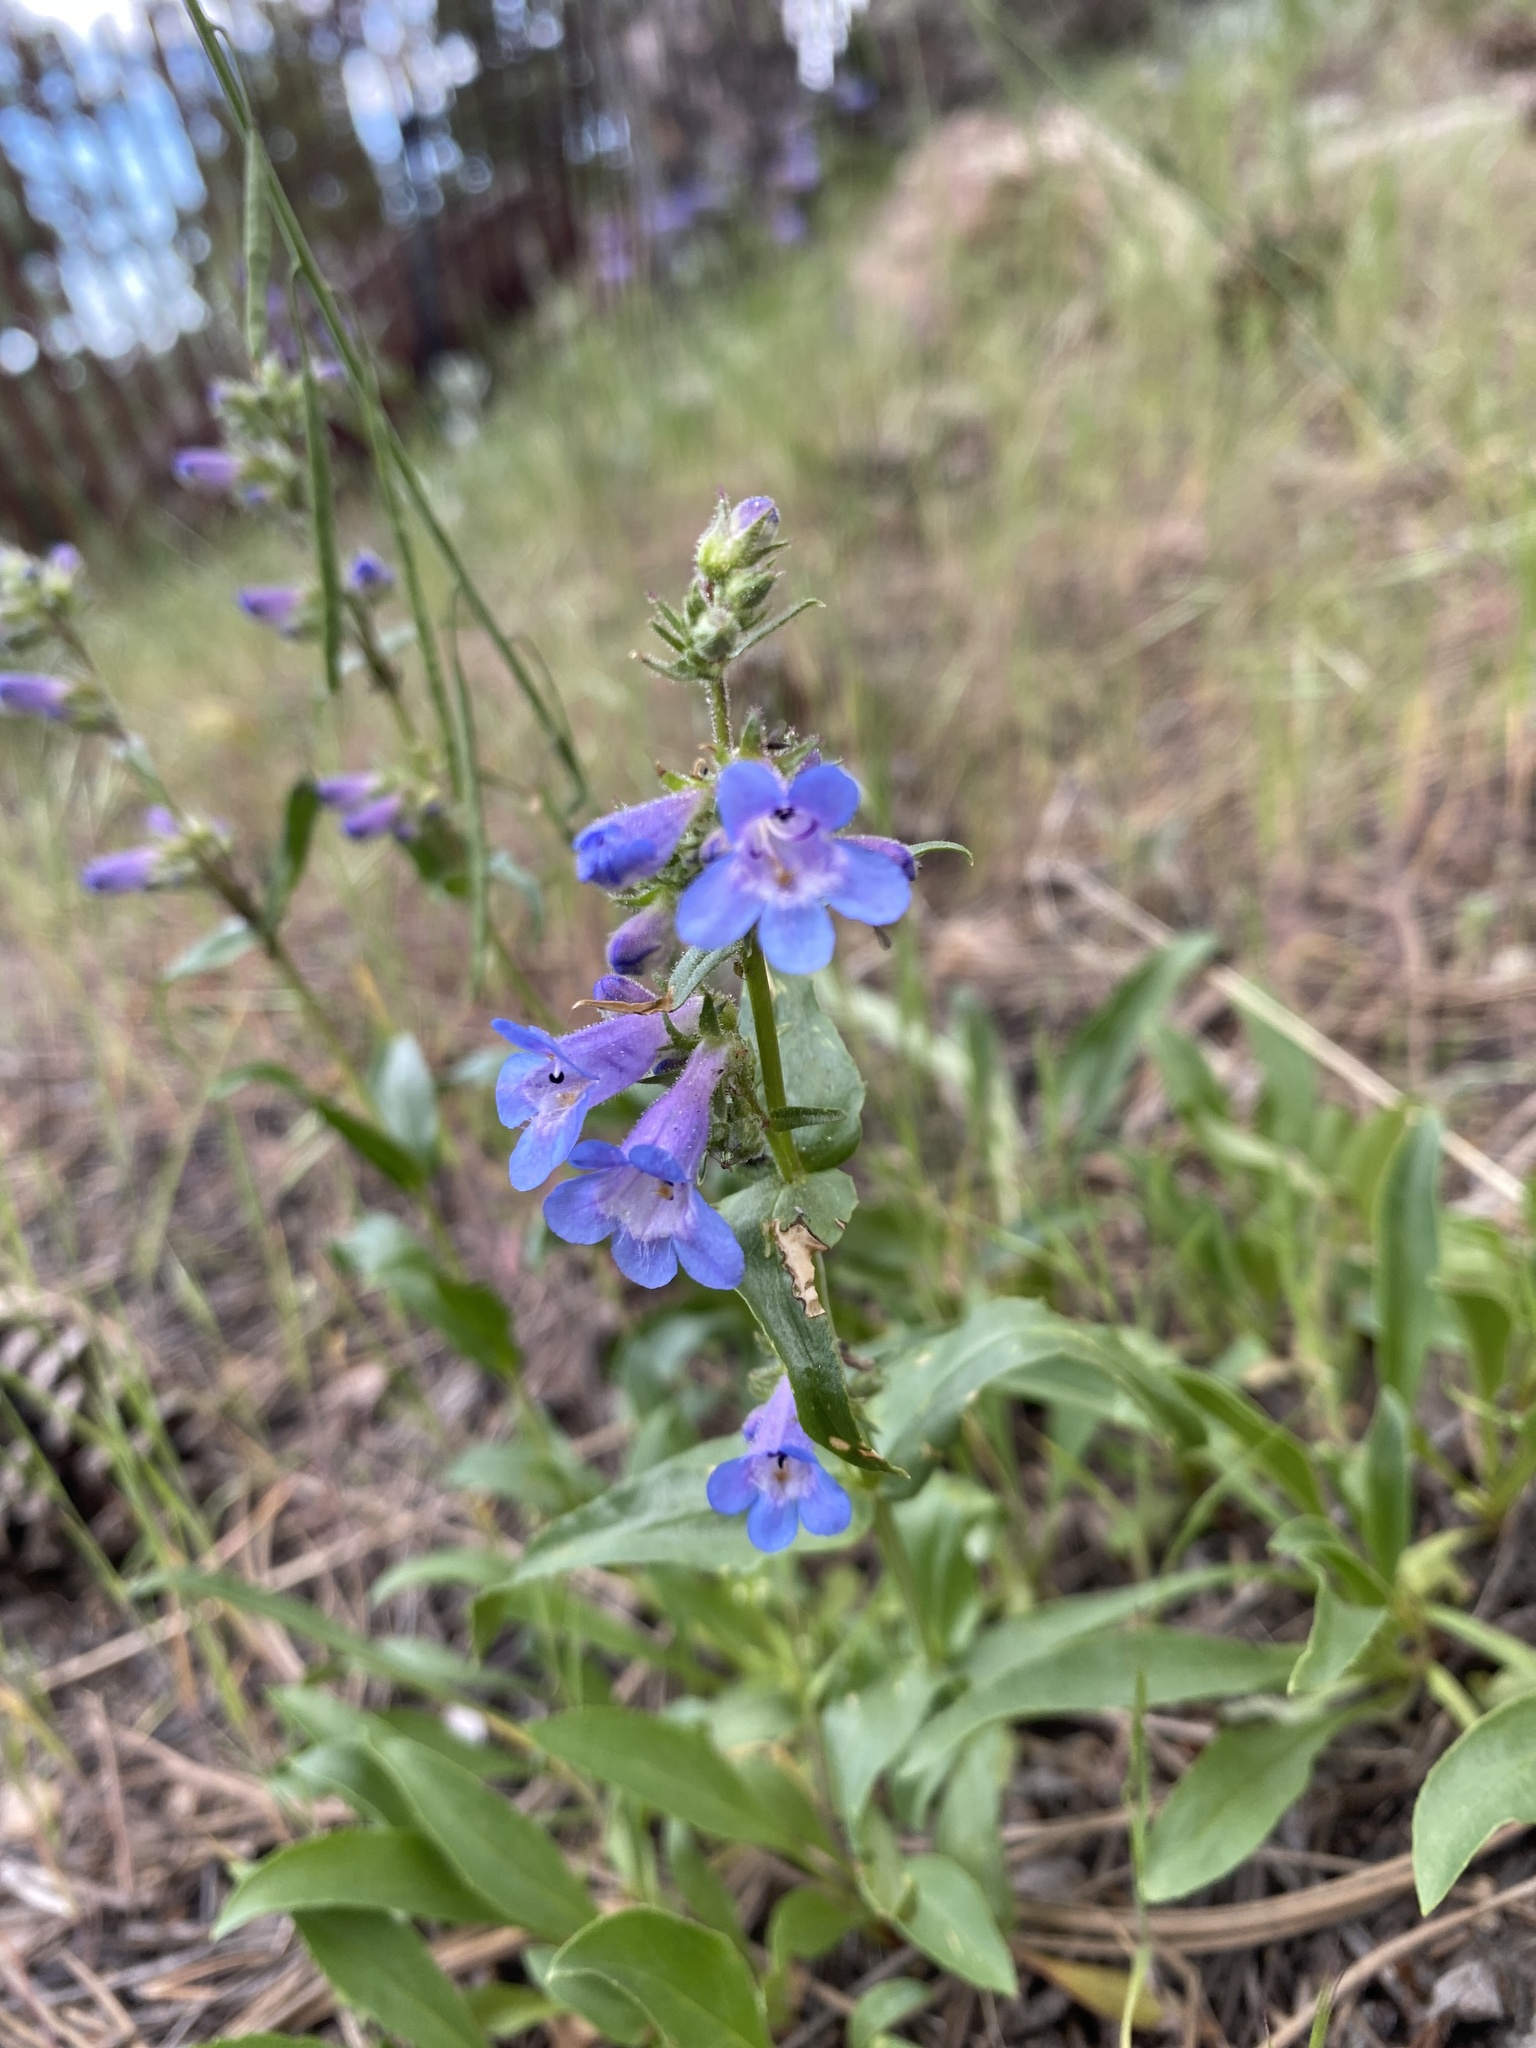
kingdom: Plantae
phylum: Tracheophyta
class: Magnoliopsida
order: Lamiales
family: Plantaginaceae
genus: Penstemon
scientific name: Penstemon virens
